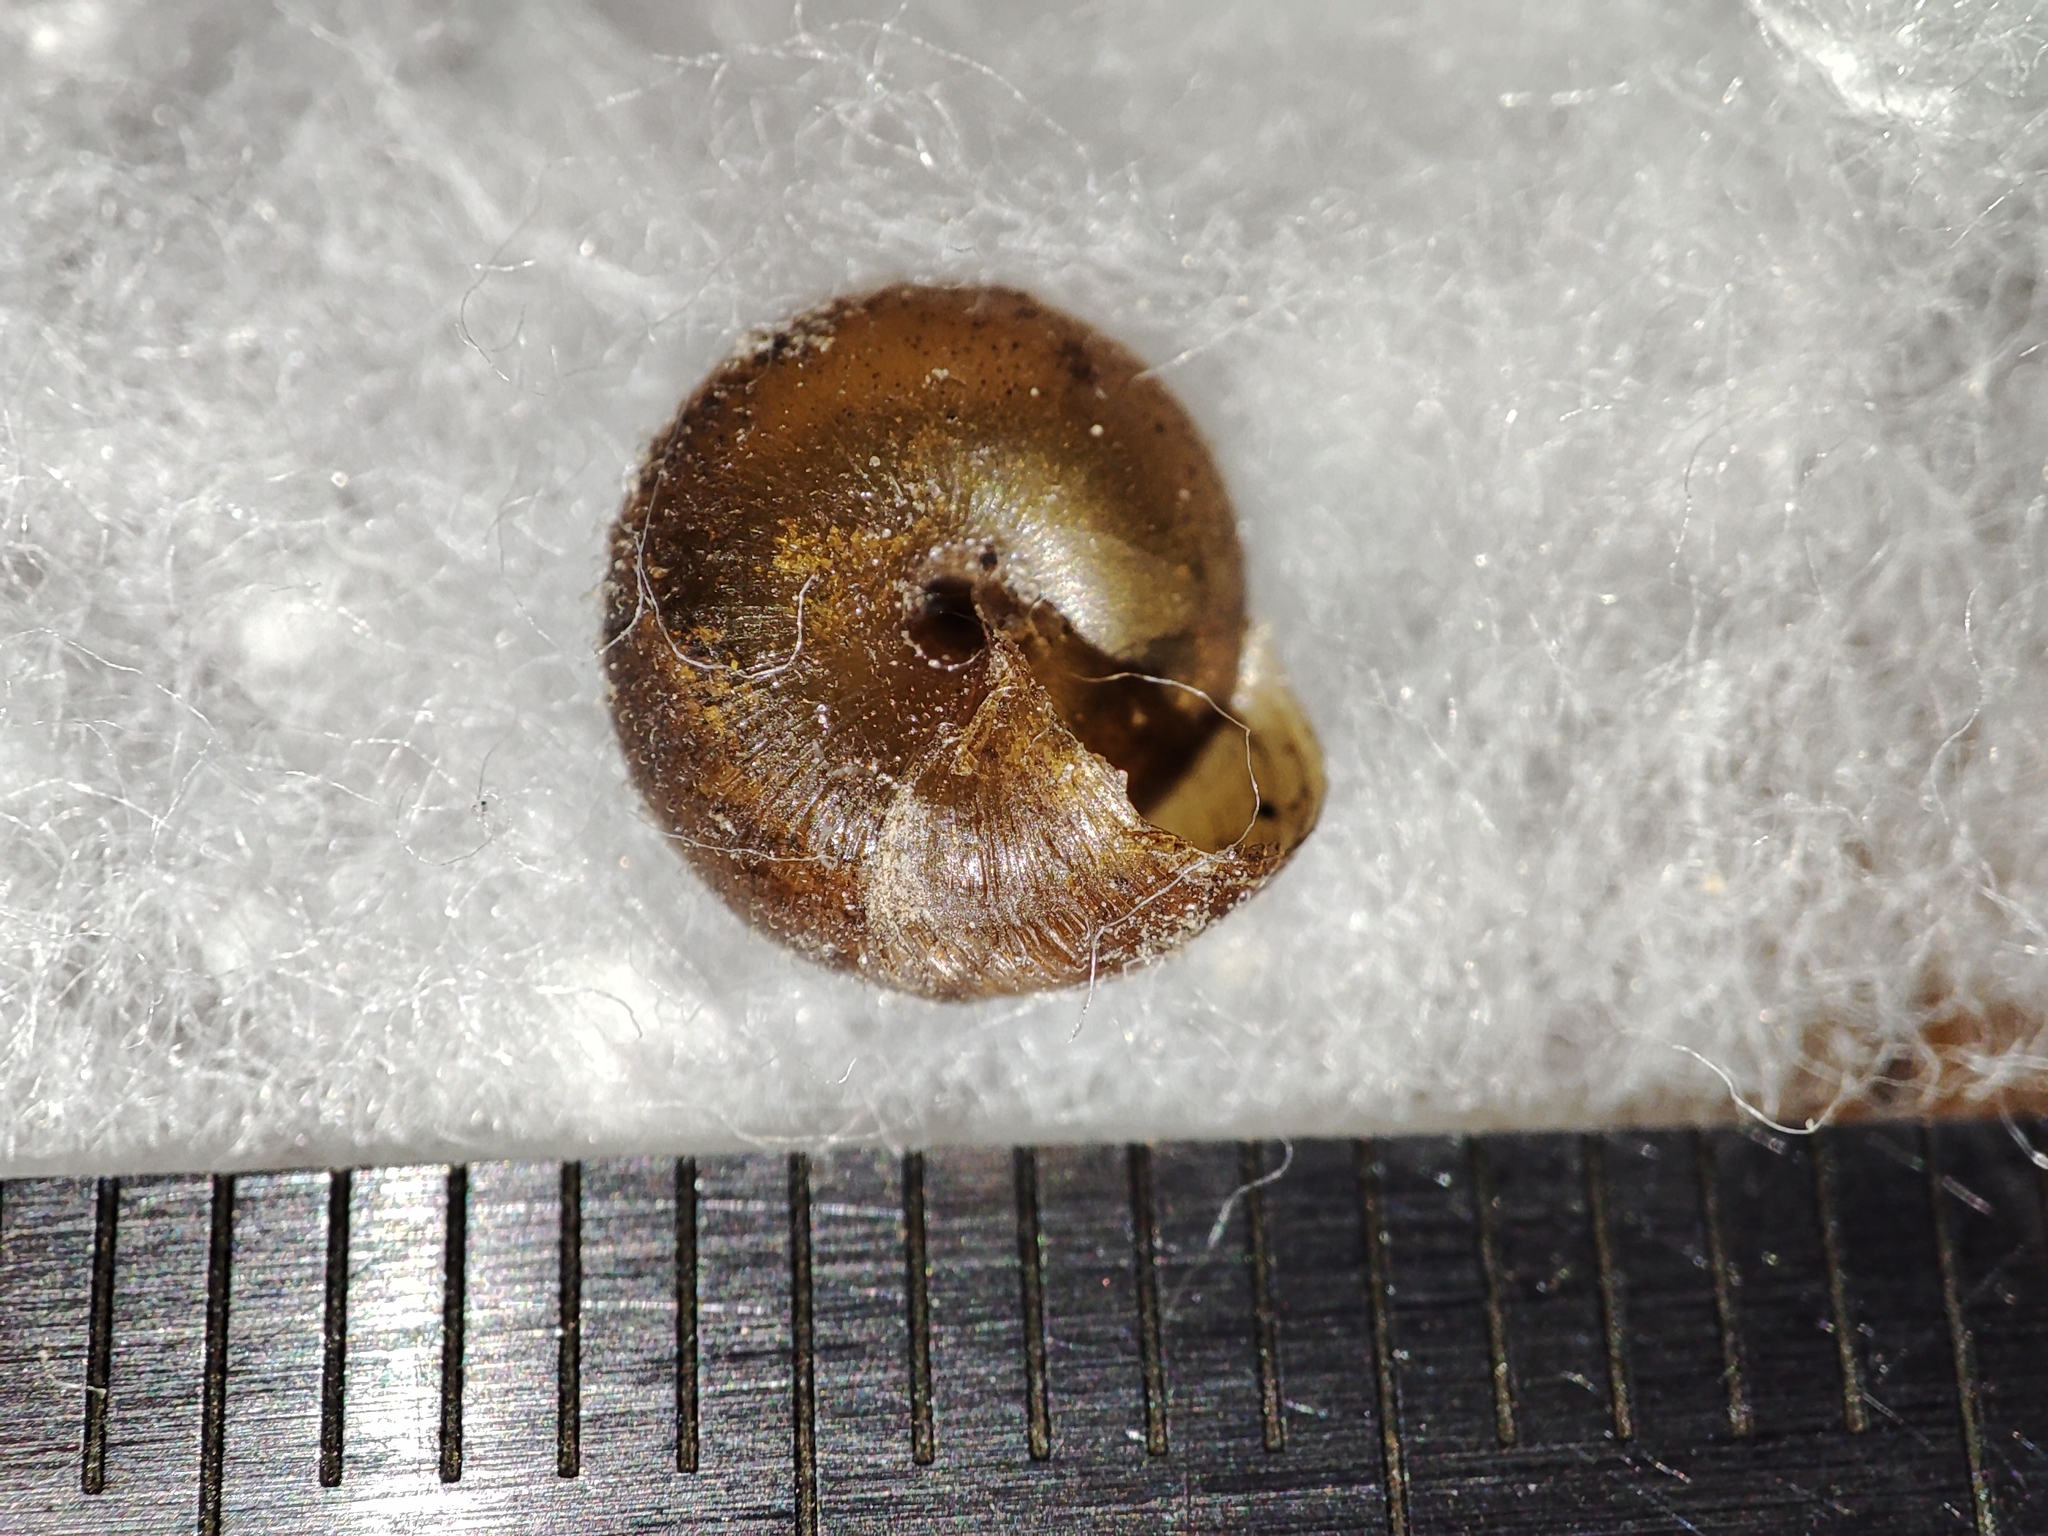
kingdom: Animalia
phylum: Mollusca
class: Gastropoda
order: Stylommatophora
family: Hygromiidae
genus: Pseudotrichia
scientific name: Pseudotrichia rubiginosa
